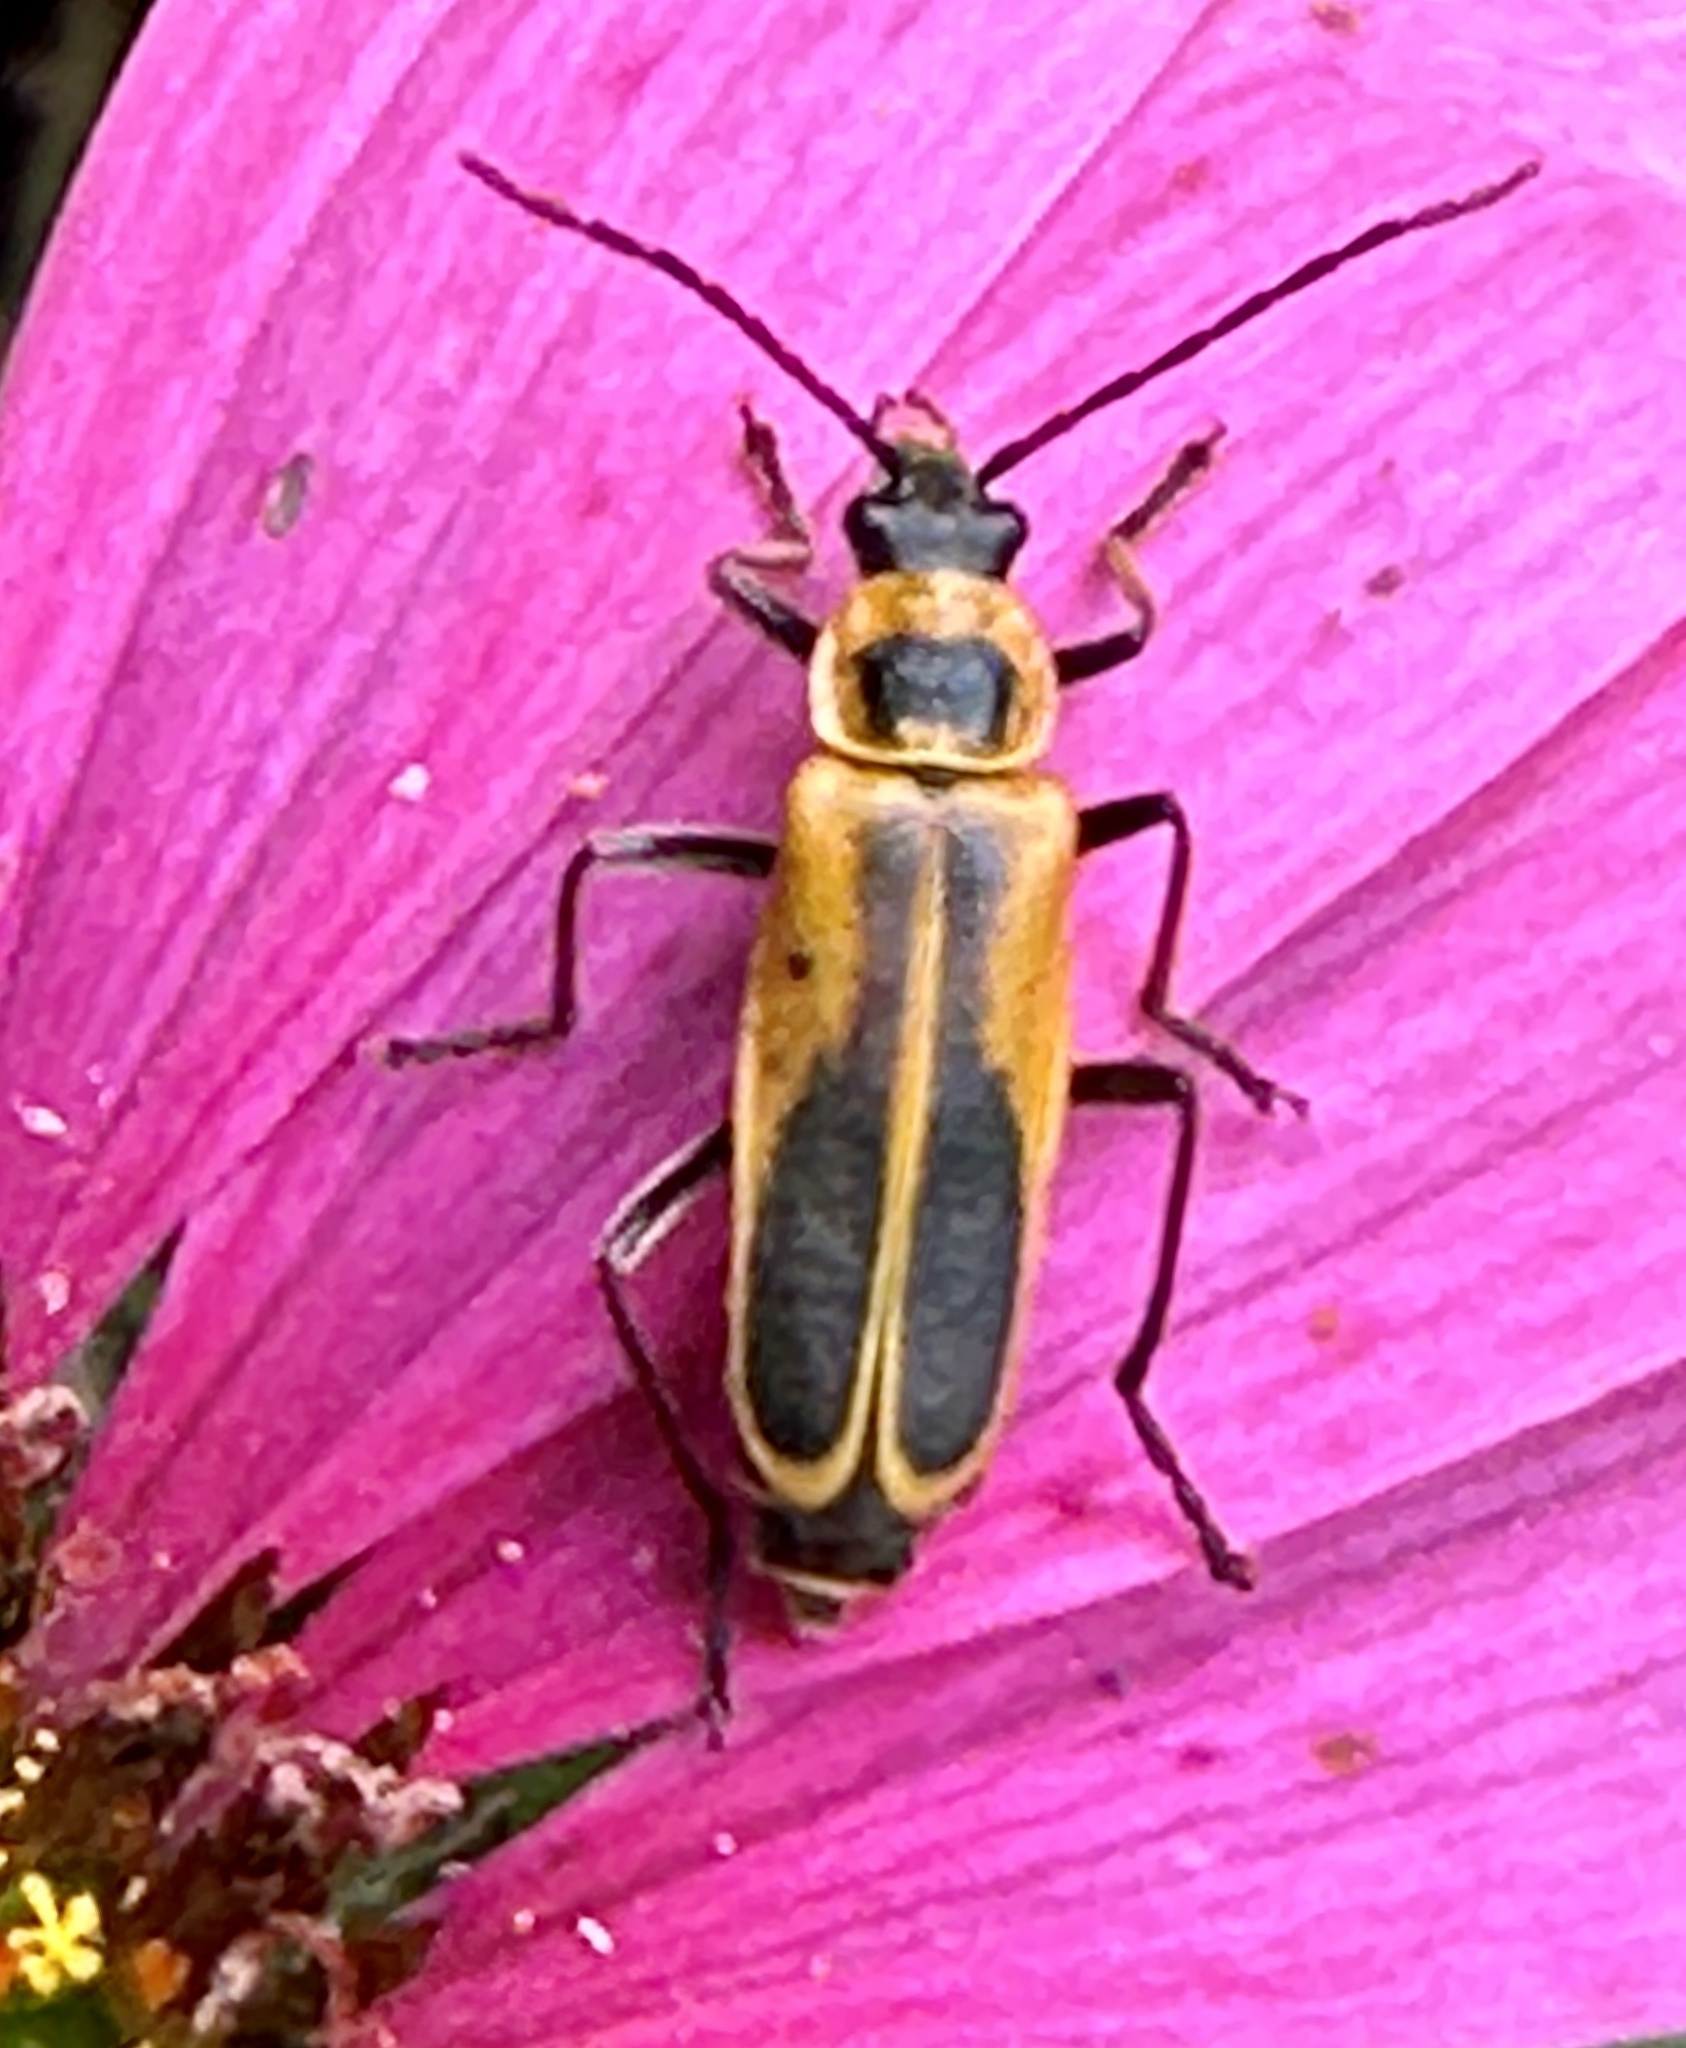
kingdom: Animalia
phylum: Arthropoda
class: Insecta
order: Coleoptera
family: Cantharidae
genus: Chauliognathus
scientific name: Chauliognathus pensylvanicus
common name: Goldenrod soldier beetle
